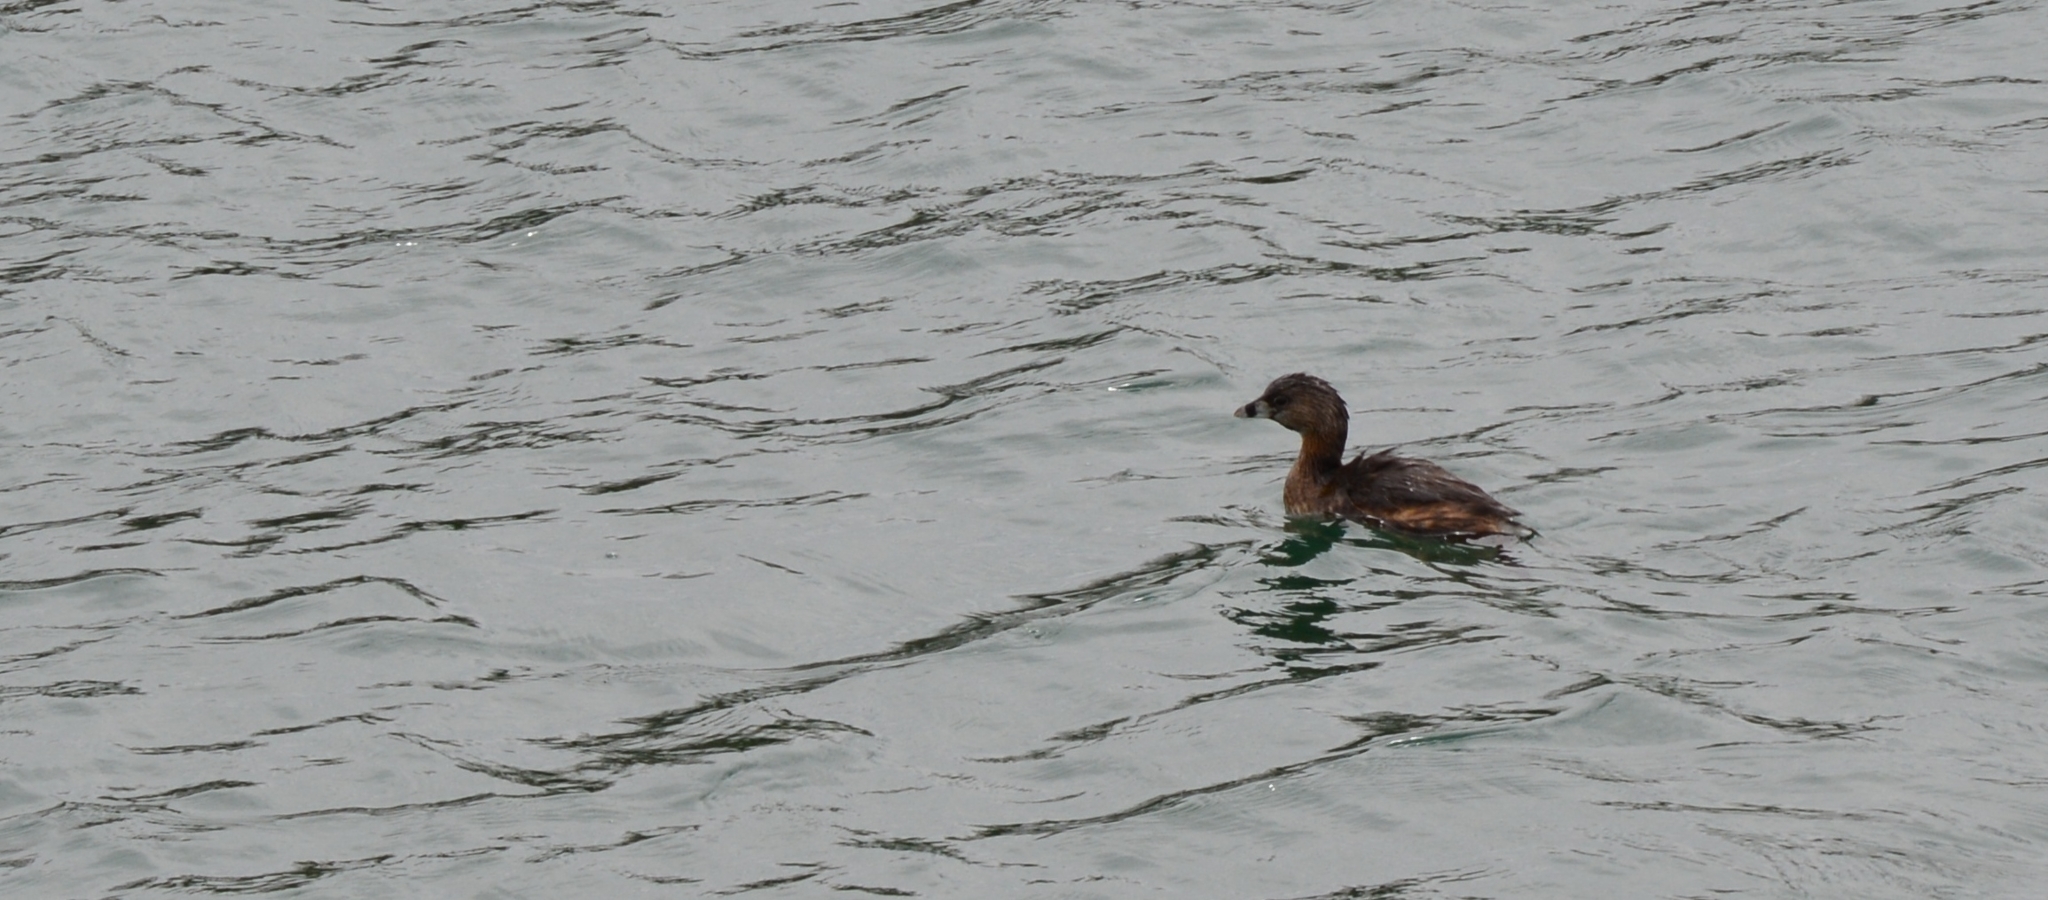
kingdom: Animalia
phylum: Chordata
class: Aves
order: Podicipediformes
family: Podicipedidae
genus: Podilymbus
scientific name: Podilymbus podiceps
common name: Pied-billed grebe
